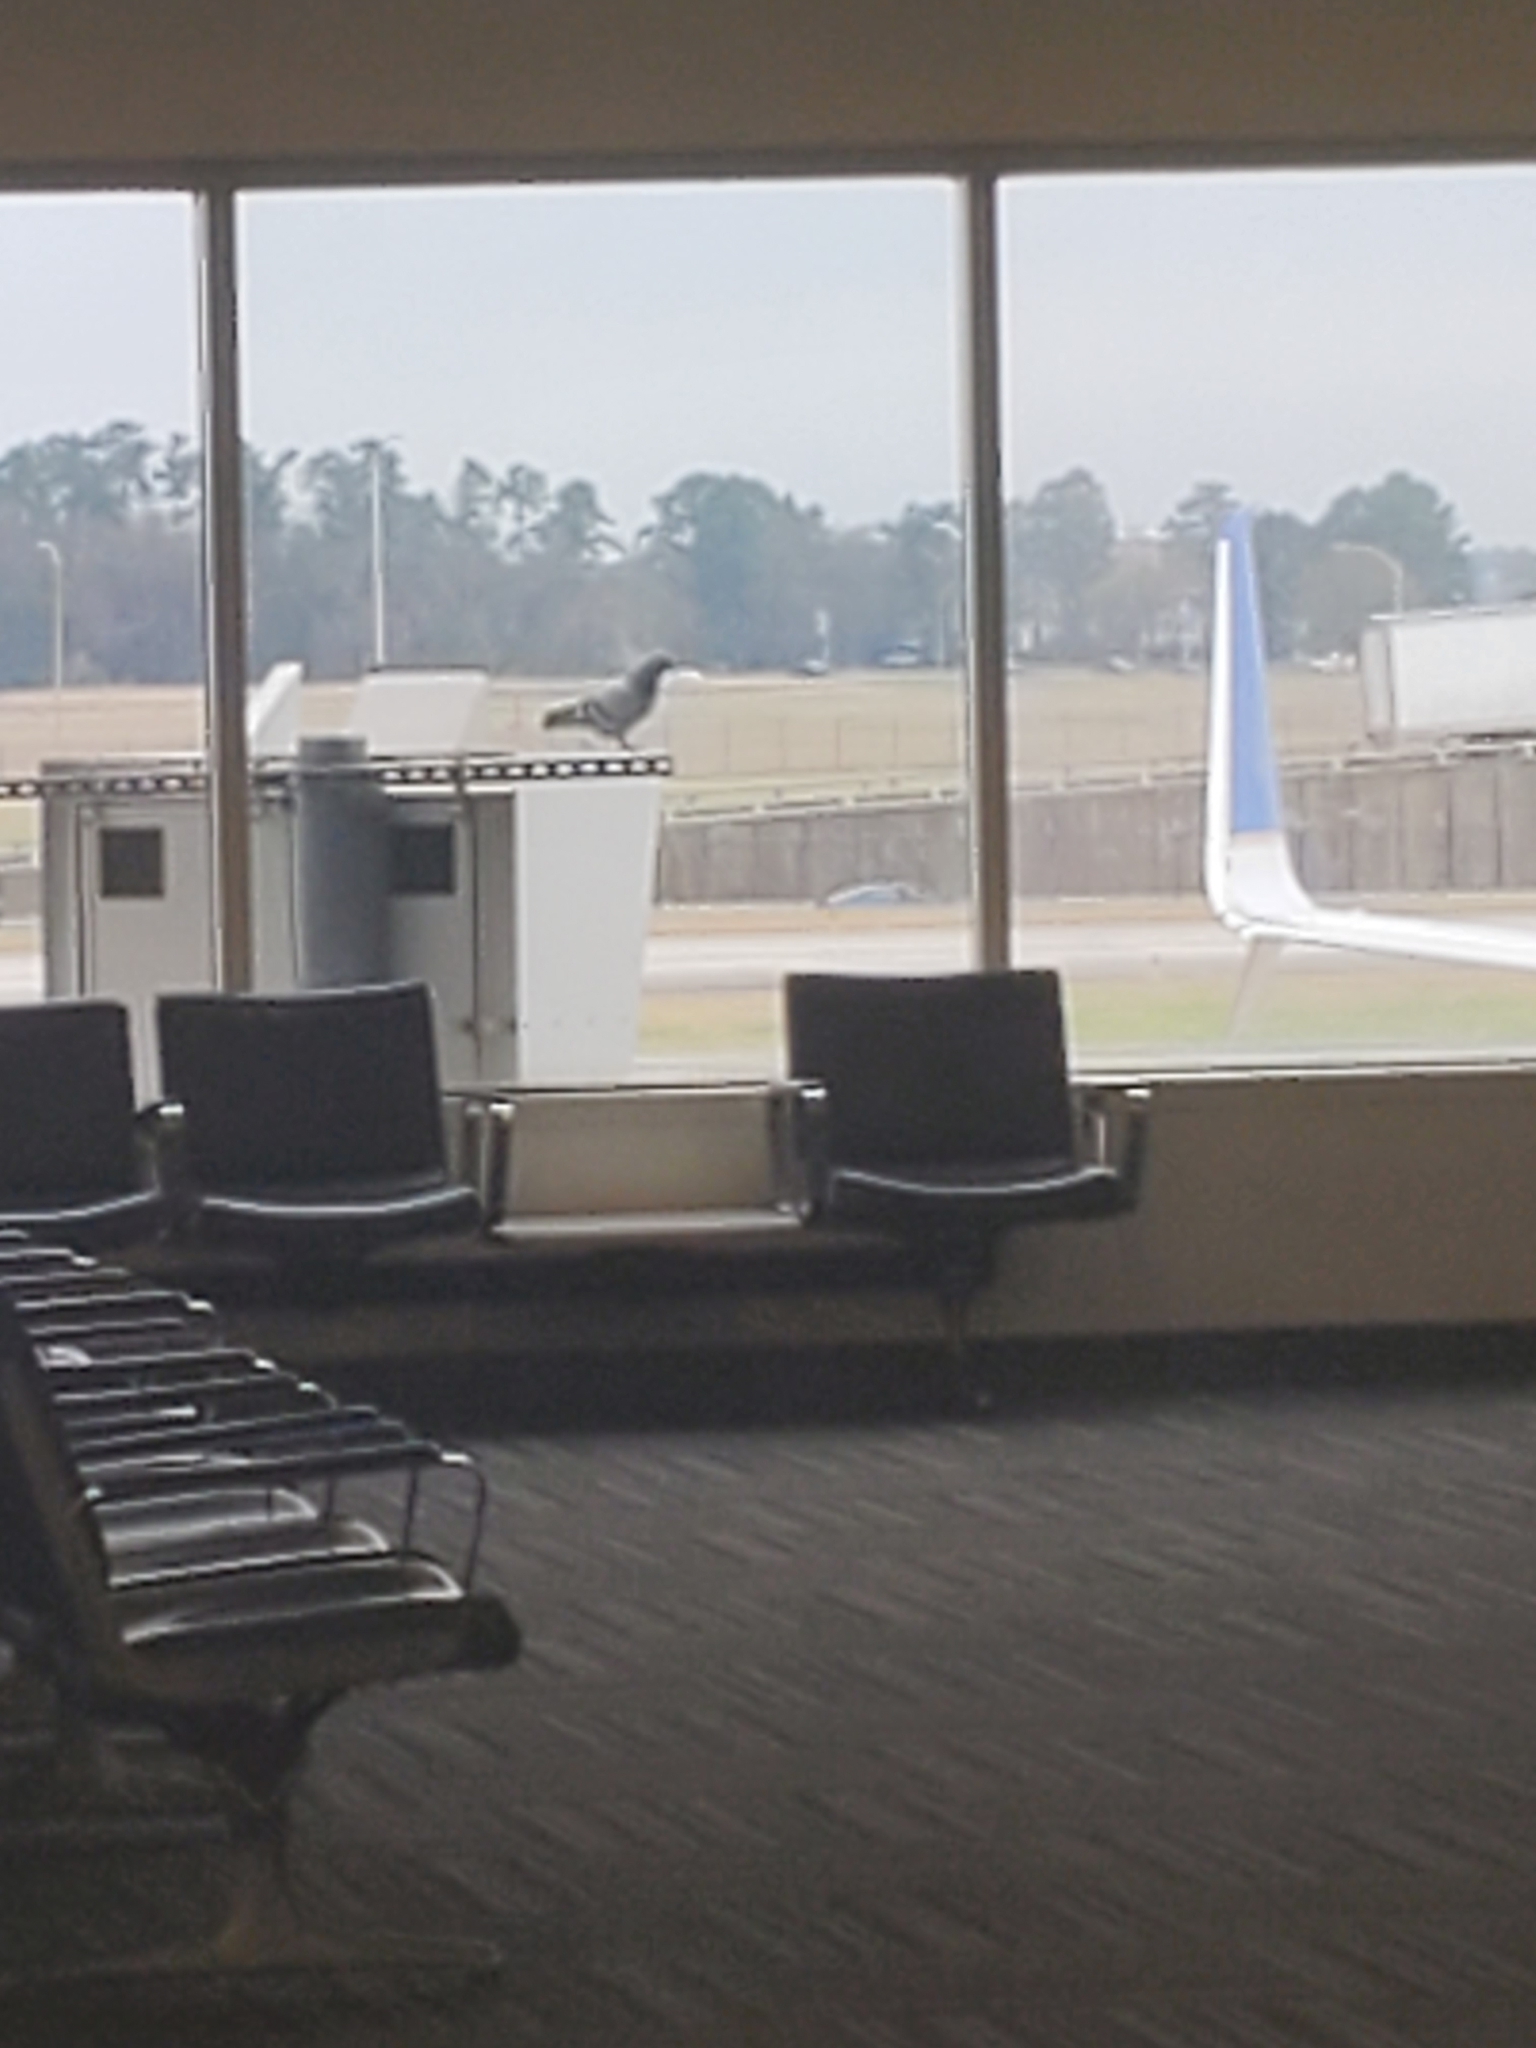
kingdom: Animalia
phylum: Chordata
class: Aves
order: Columbiformes
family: Columbidae
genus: Columba
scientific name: Columba livia
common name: Rock pigeon
